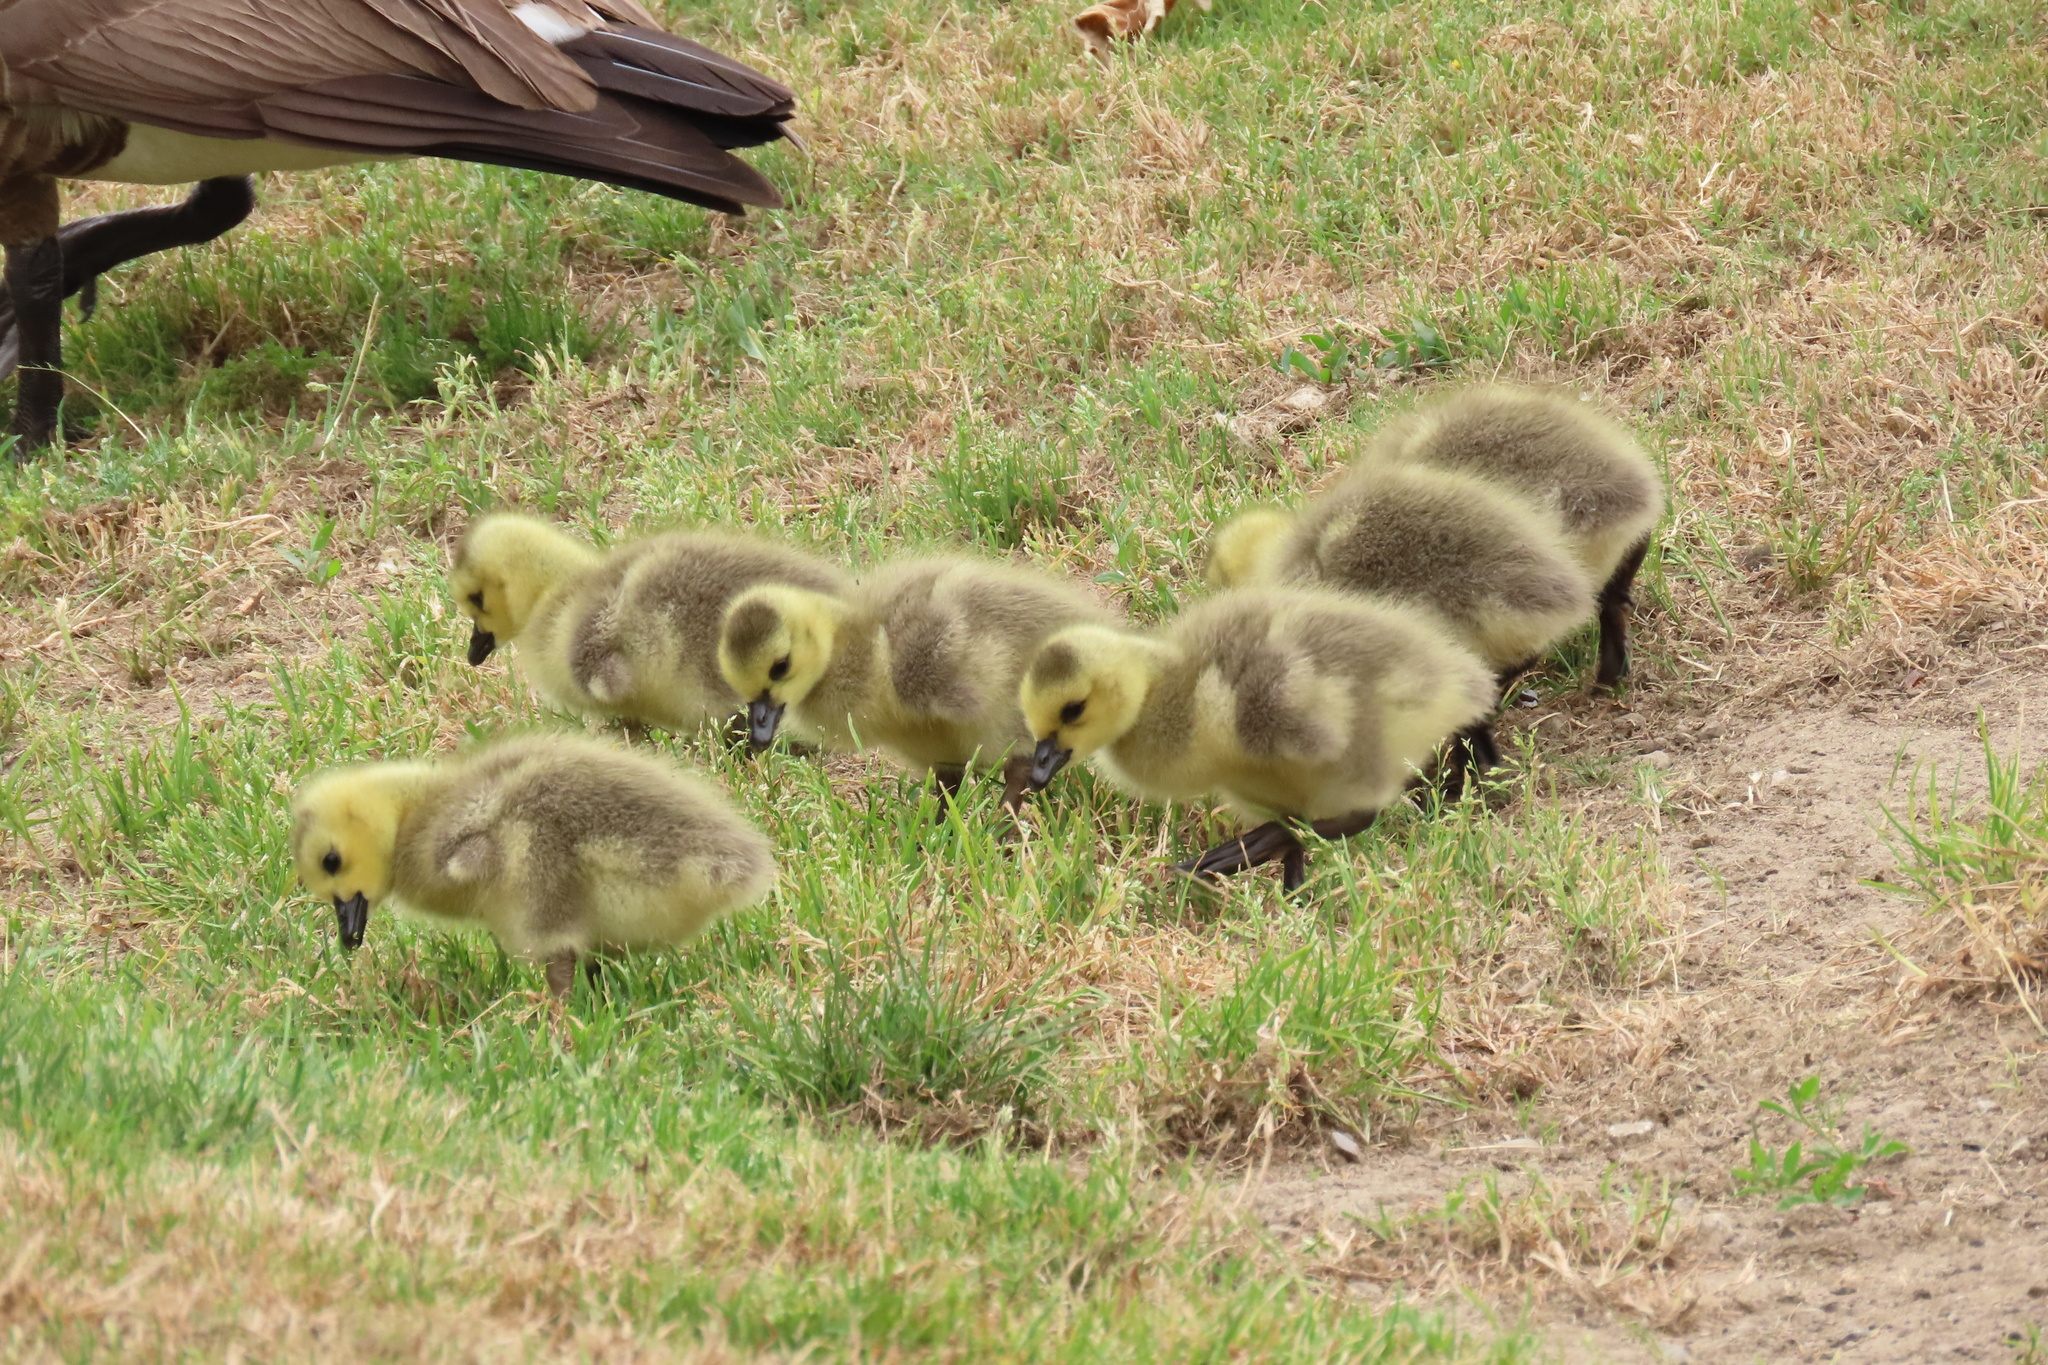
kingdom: Animalia
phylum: Chordata
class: Aves
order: Anseriformes
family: Anatidae
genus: Branta
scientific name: Branta canadensis
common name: Canada goose
